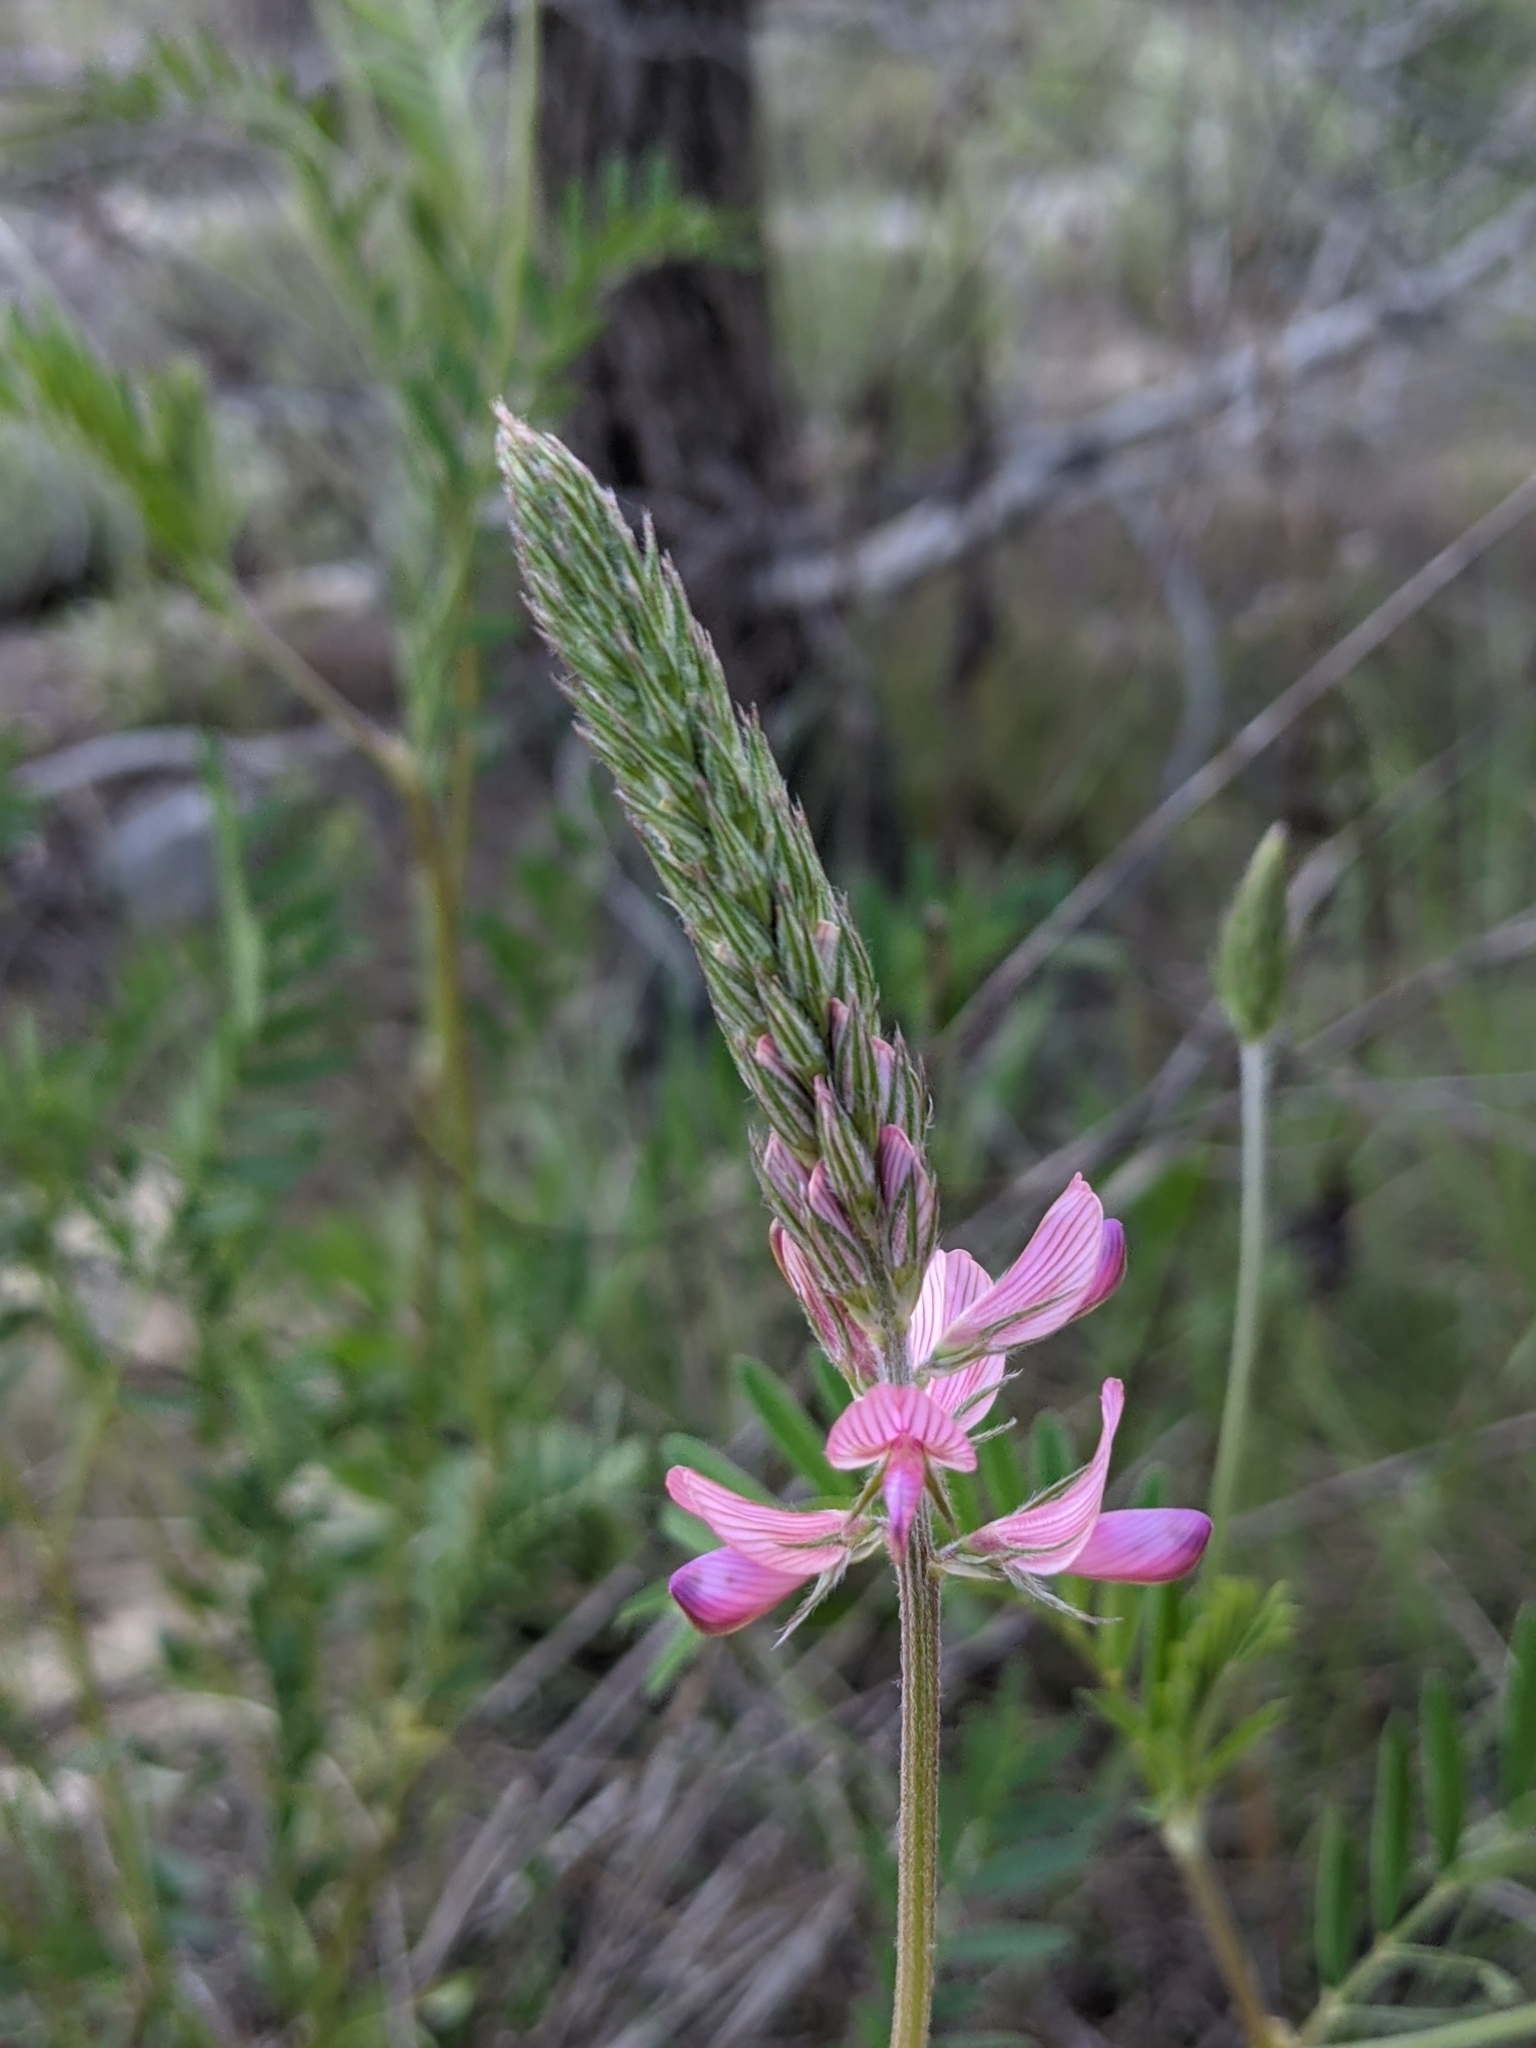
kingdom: Plantae
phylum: Tracheophyta
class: Magnoliopsida
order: Fabales
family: Fabaceae
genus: Onobrychis
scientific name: Onobrychis viciifolia
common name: Sainfoin
